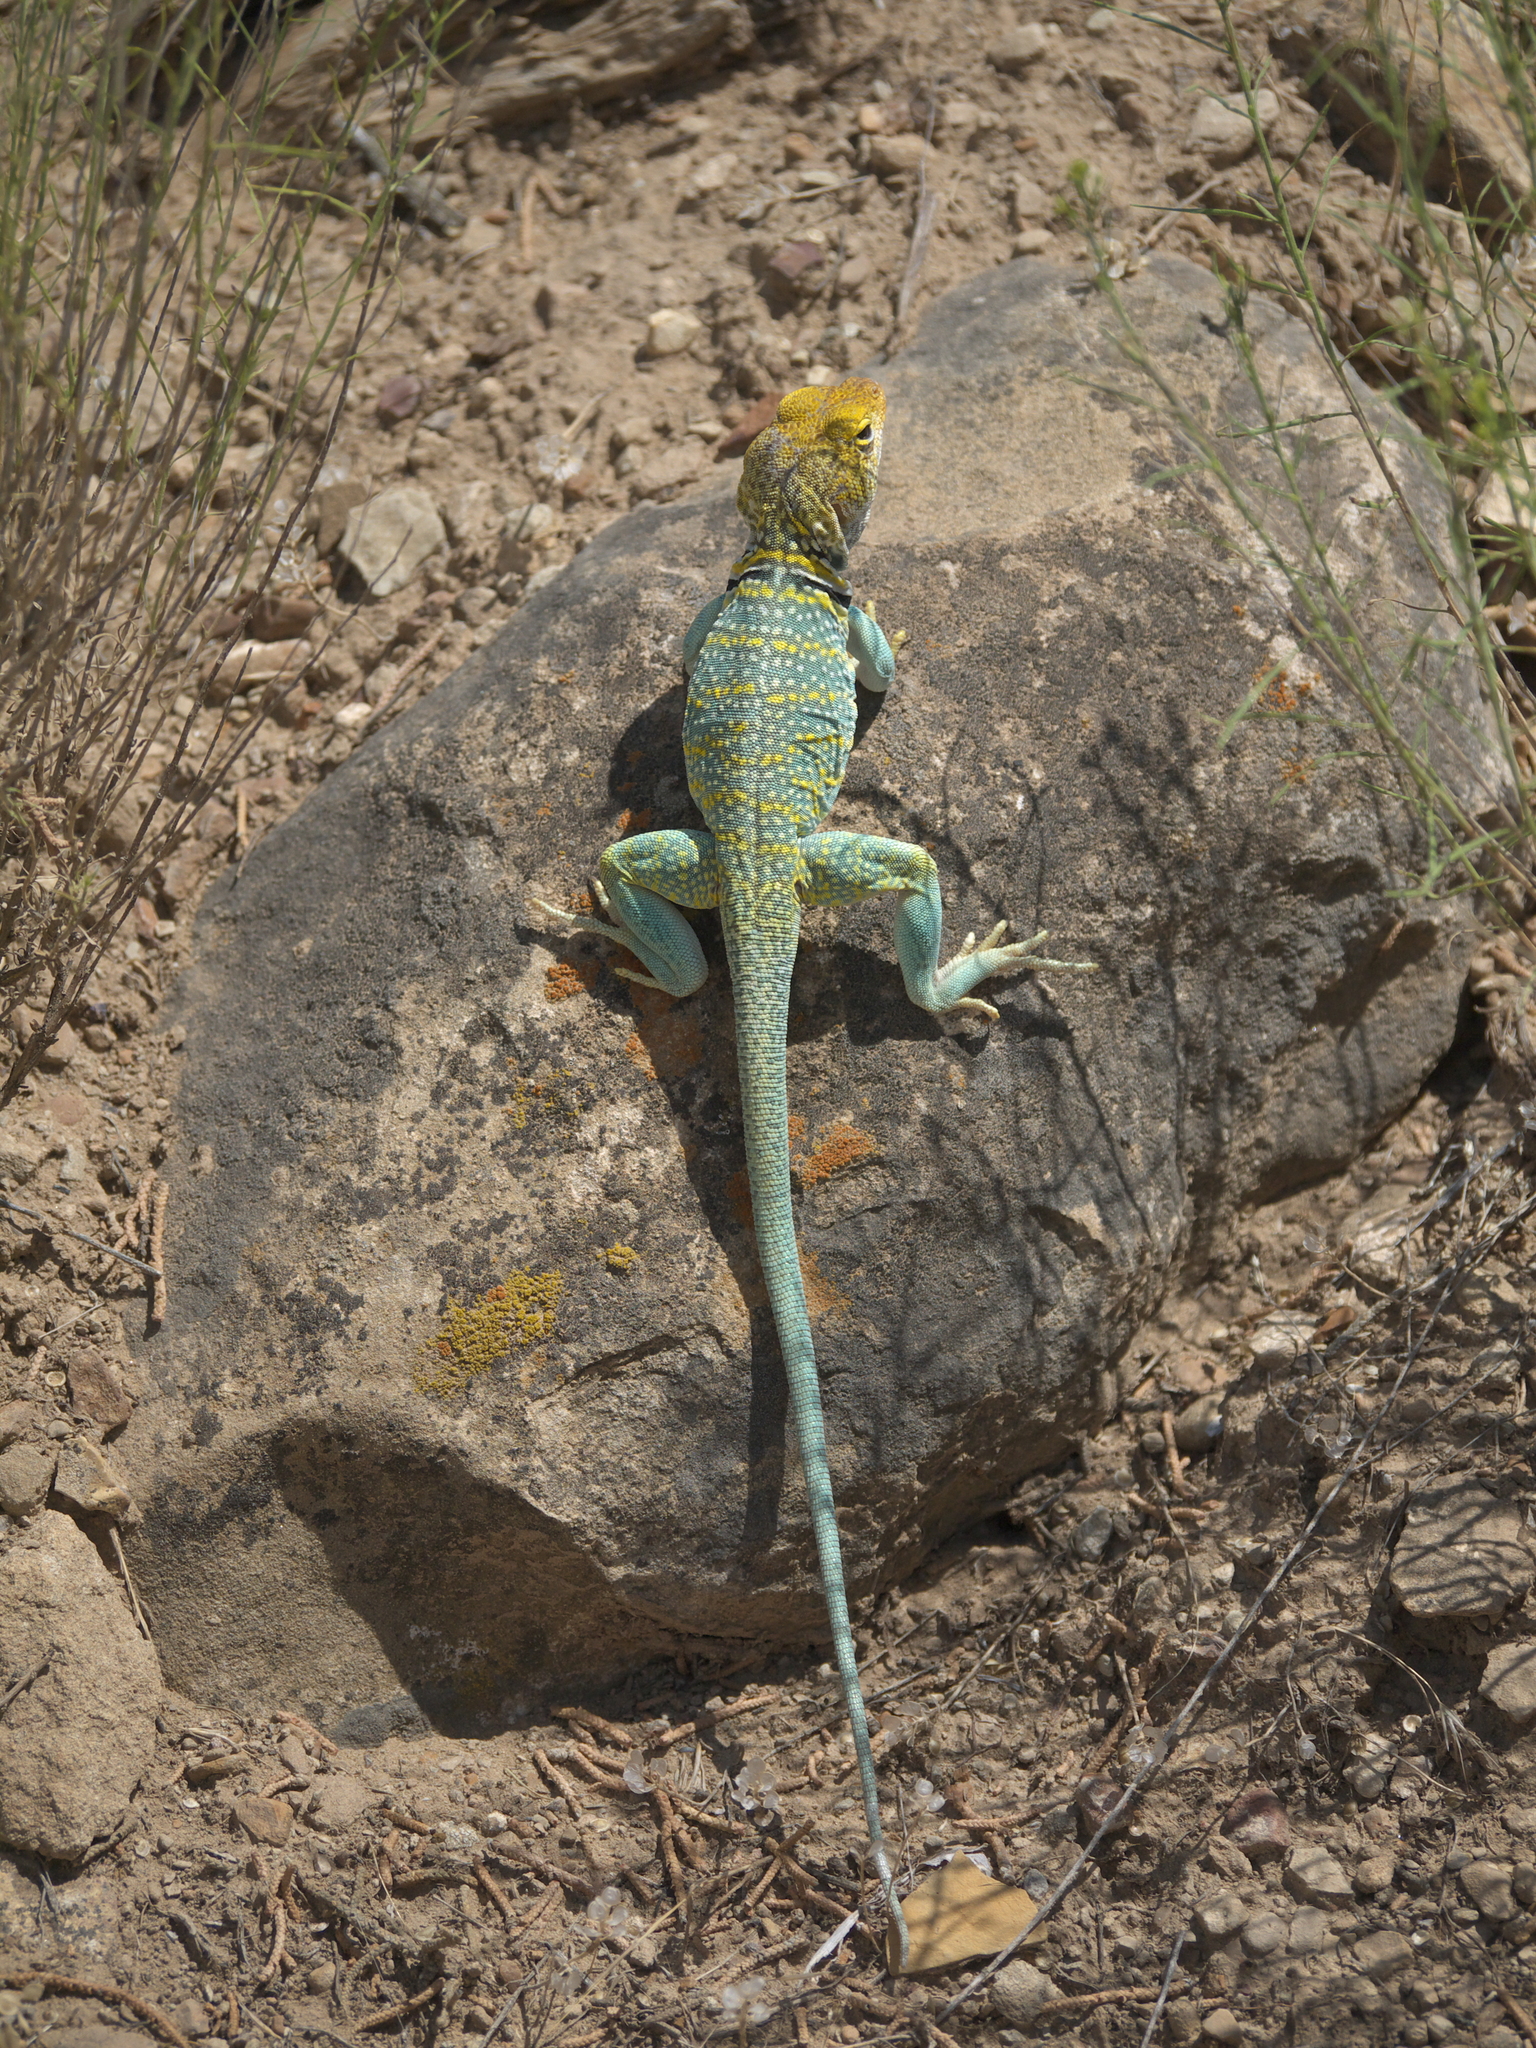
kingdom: Animalia
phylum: Chordata
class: Squamata
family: Crotaphytidae
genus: Crotaphytus
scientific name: Crotaphytus collaris
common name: Collared lizard
